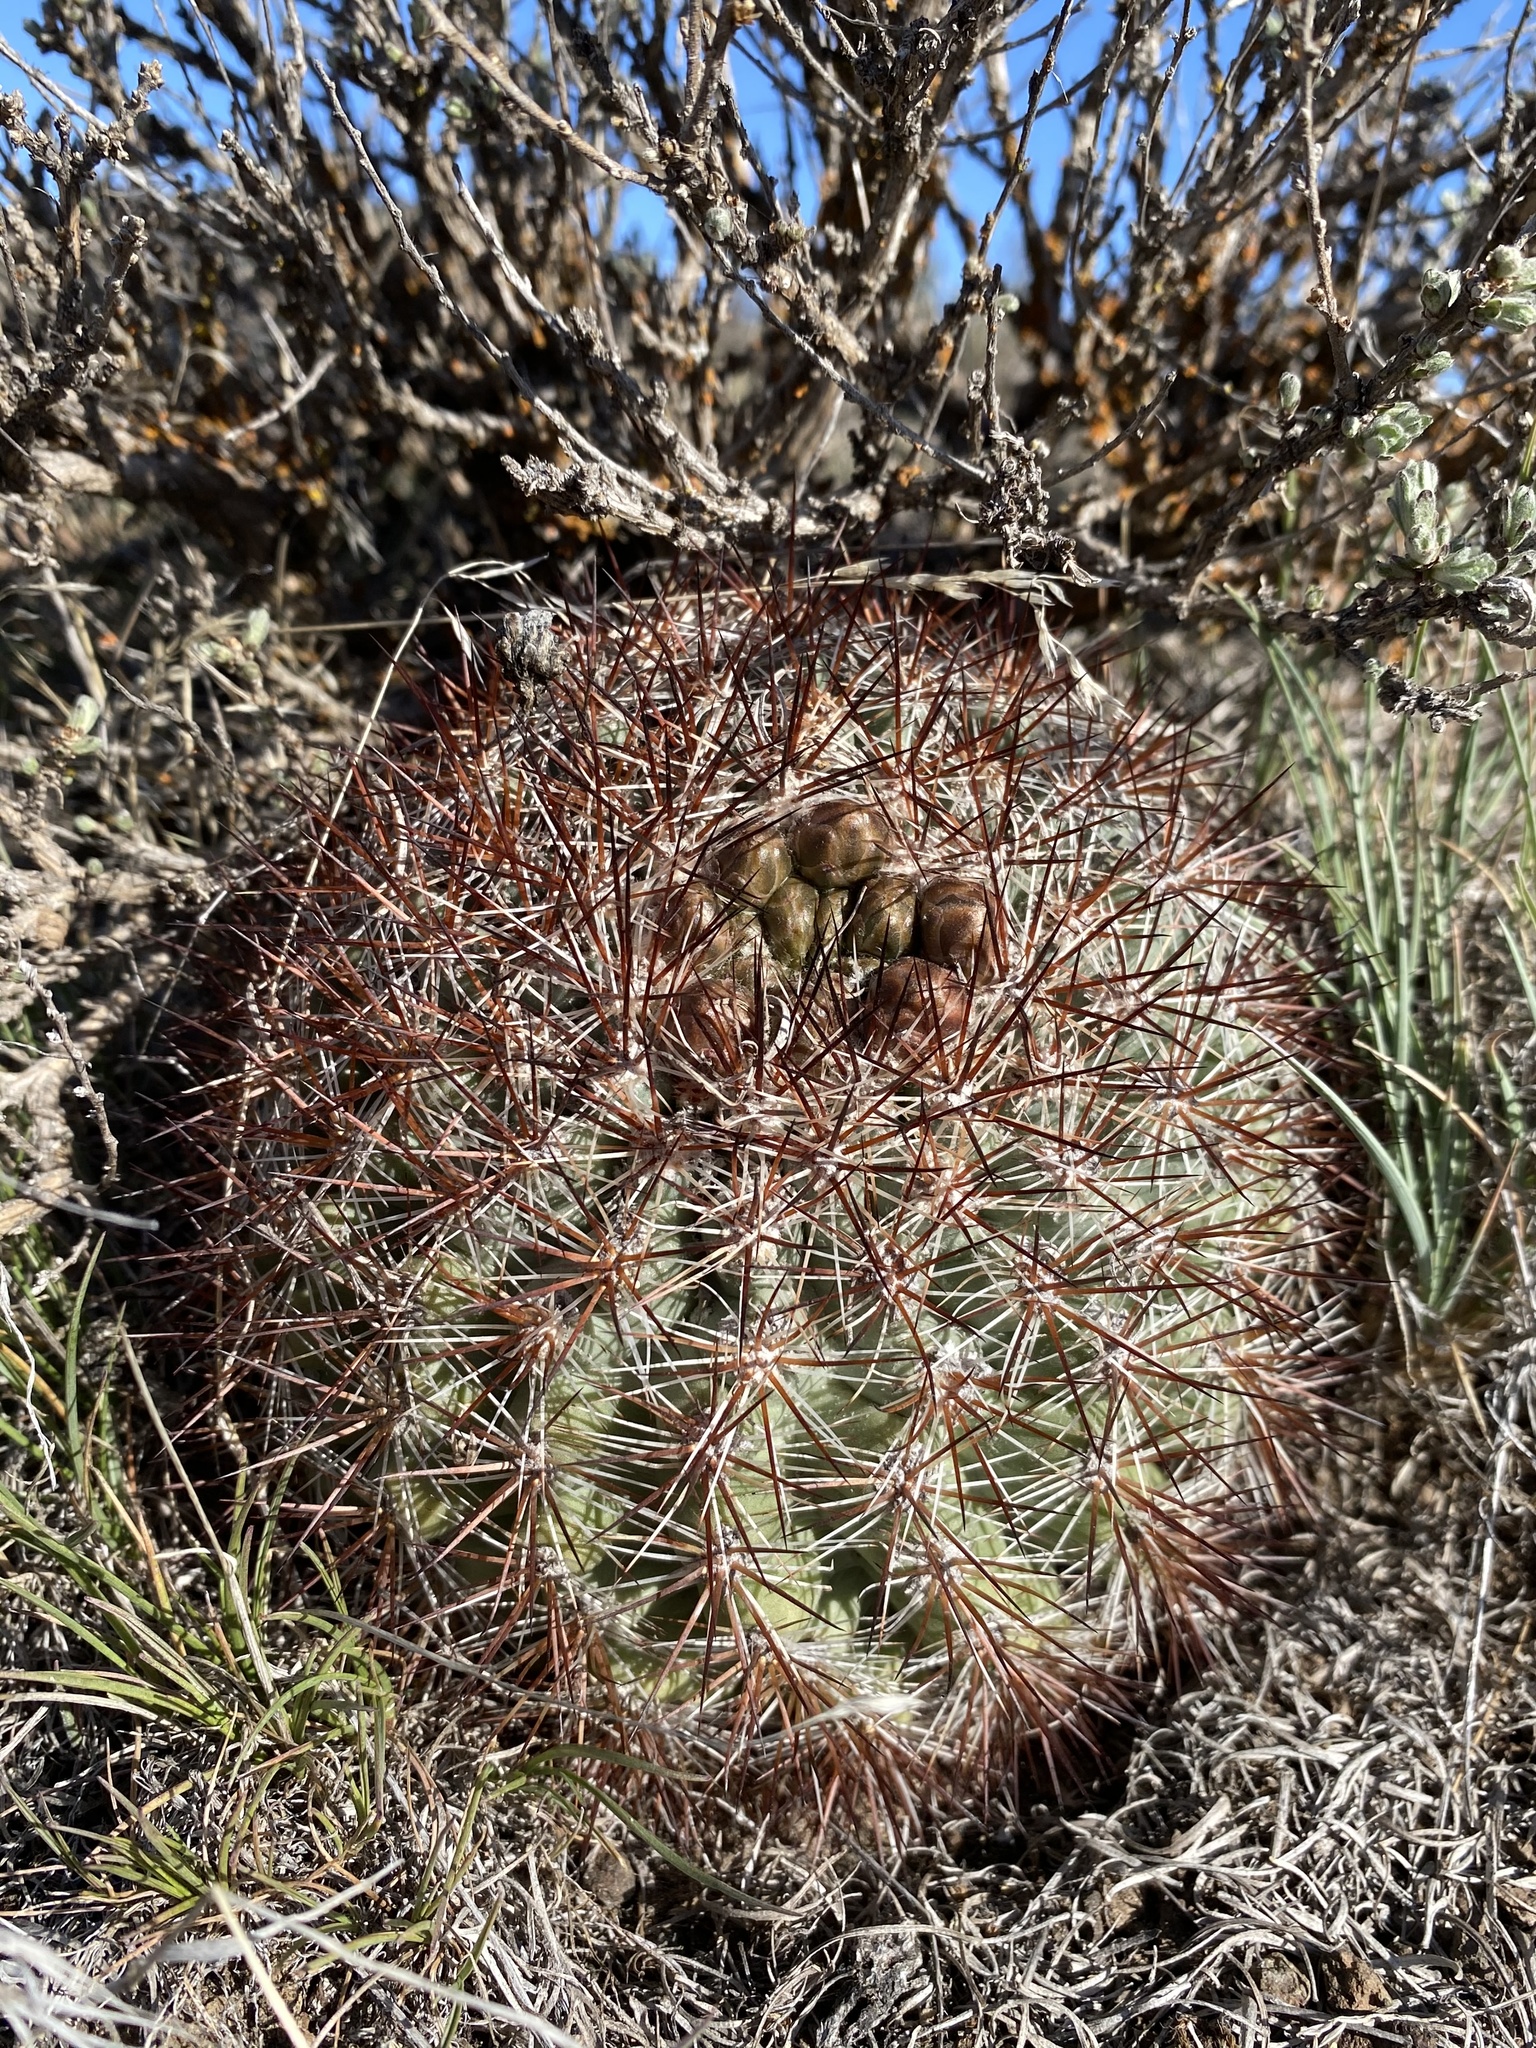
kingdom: Plantae
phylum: Tracheophyta
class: Magnoliopsida
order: Caryophyllales
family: Cactaceae
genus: Pediocactus
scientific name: Pediocactus nigrispinus
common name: Simpson's hedgehog cactus
